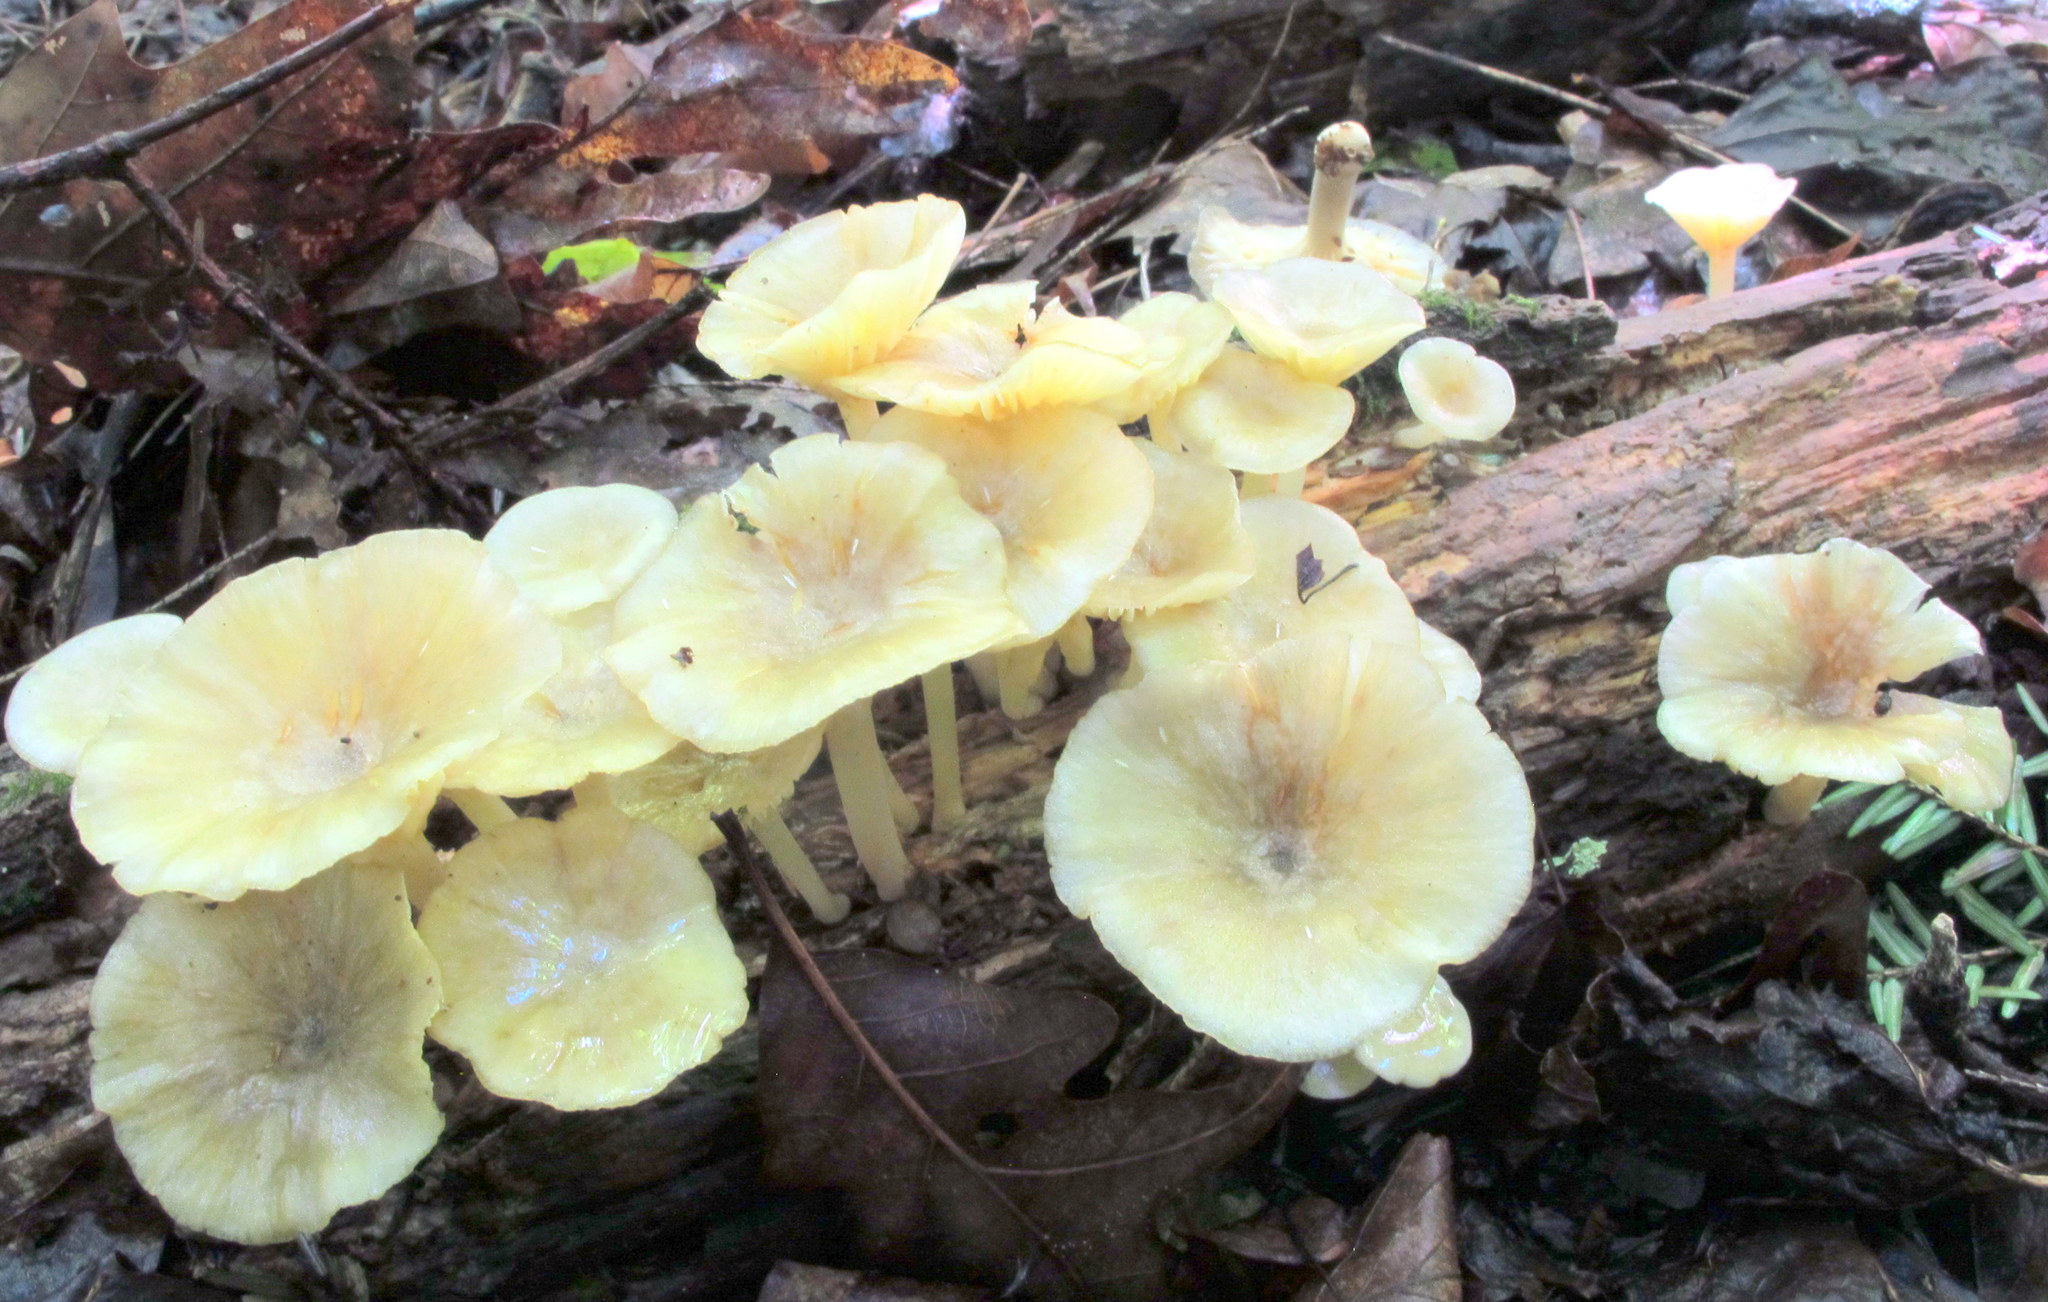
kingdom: Fungi
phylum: Basidiomycota
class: Agaricomycetes
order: Agaricales
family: Marasmiaceae
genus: Gerronema
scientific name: Gerronema strombodes
